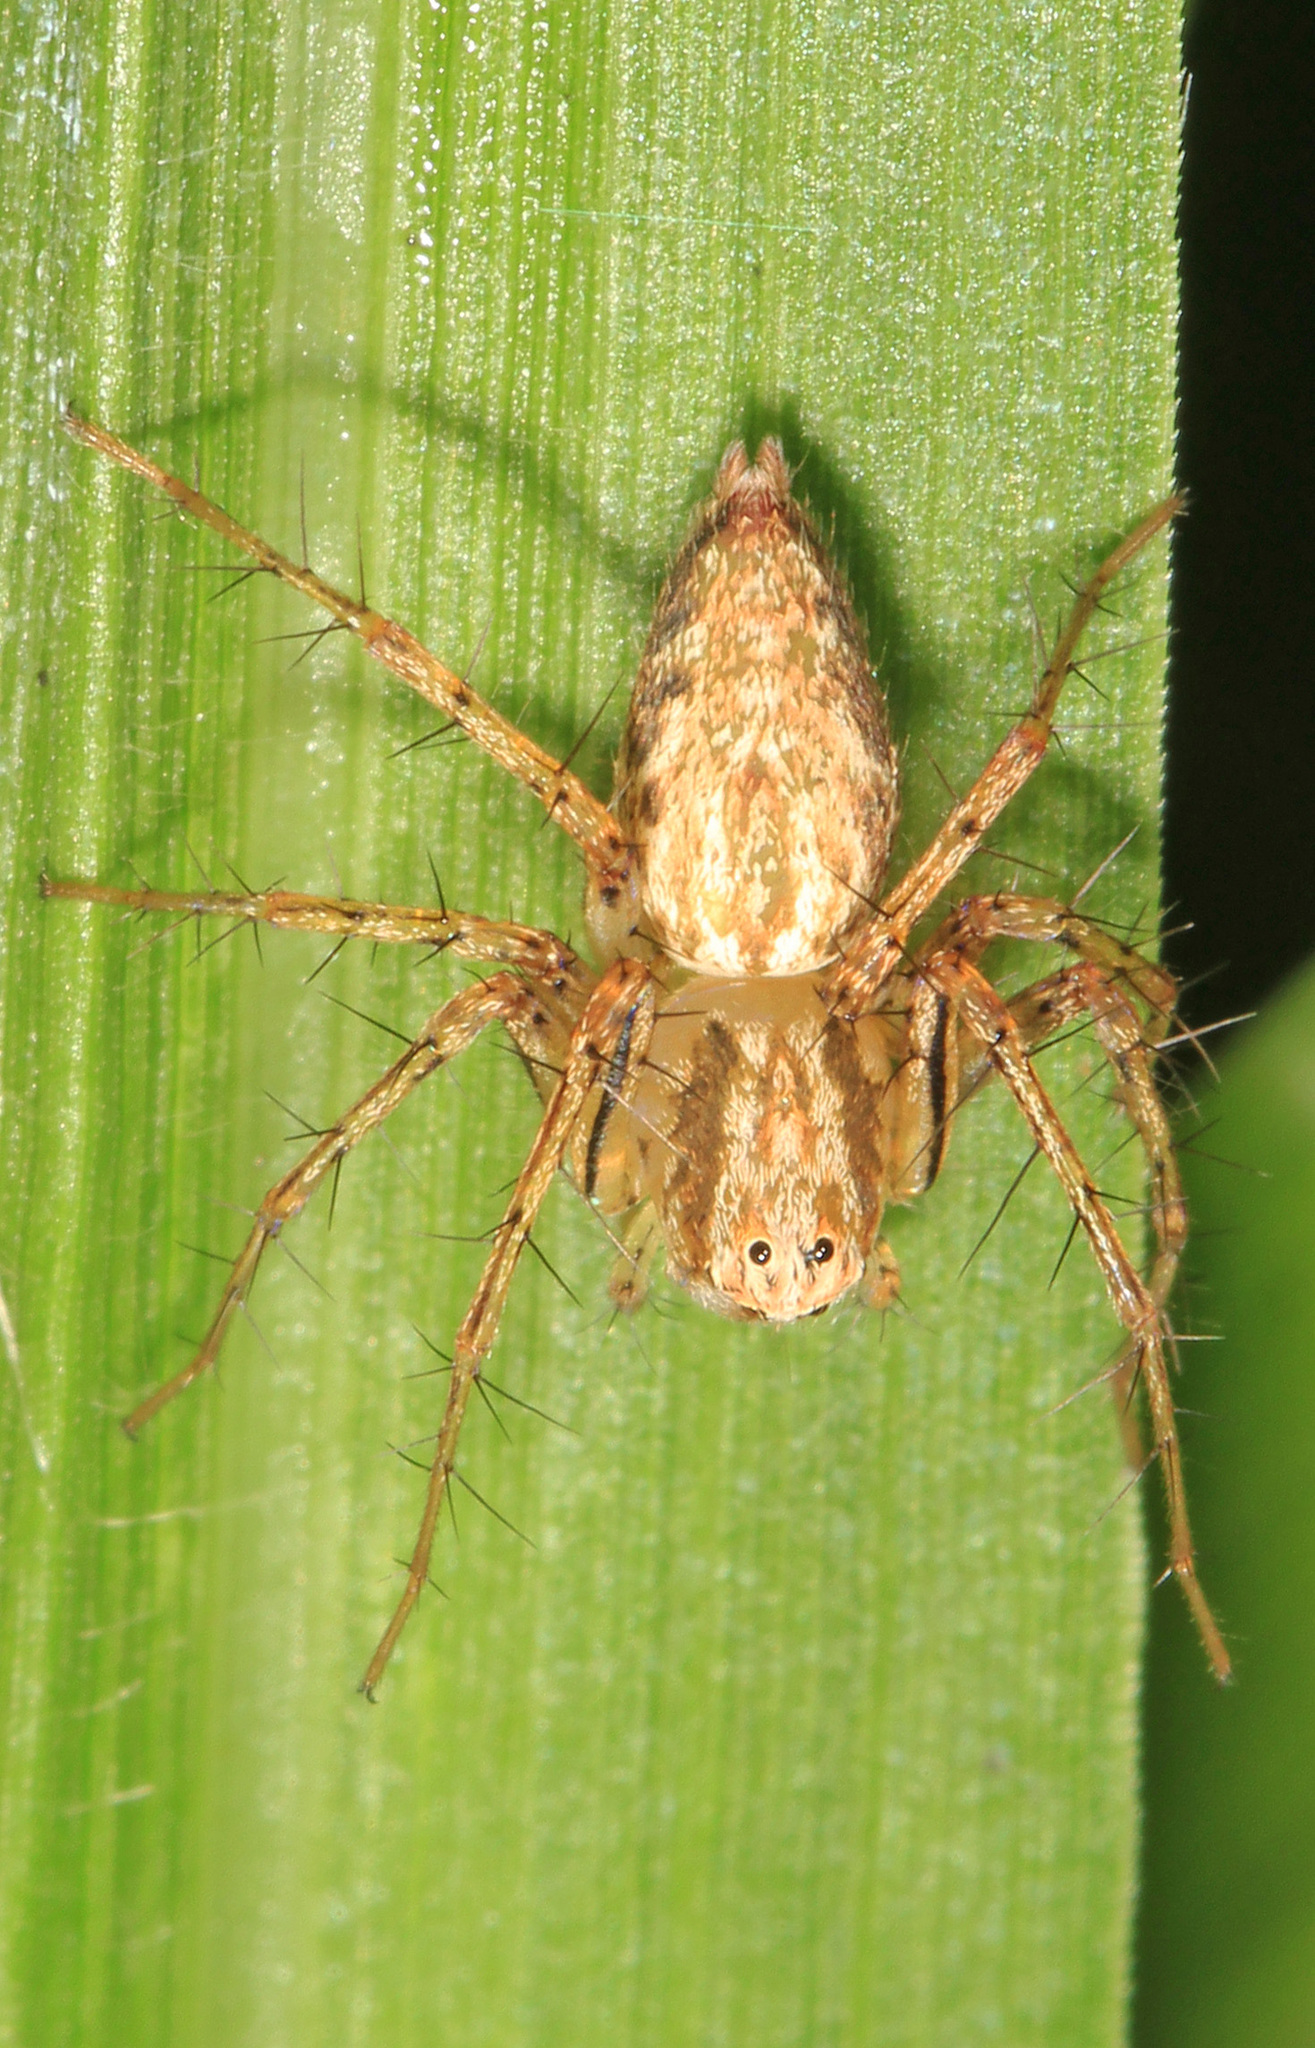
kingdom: Animalia
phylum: Arthropoda
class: Arachnida
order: Araneae
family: Oxyopidae
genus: Oxyopes
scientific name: Oxyopes aglossus
